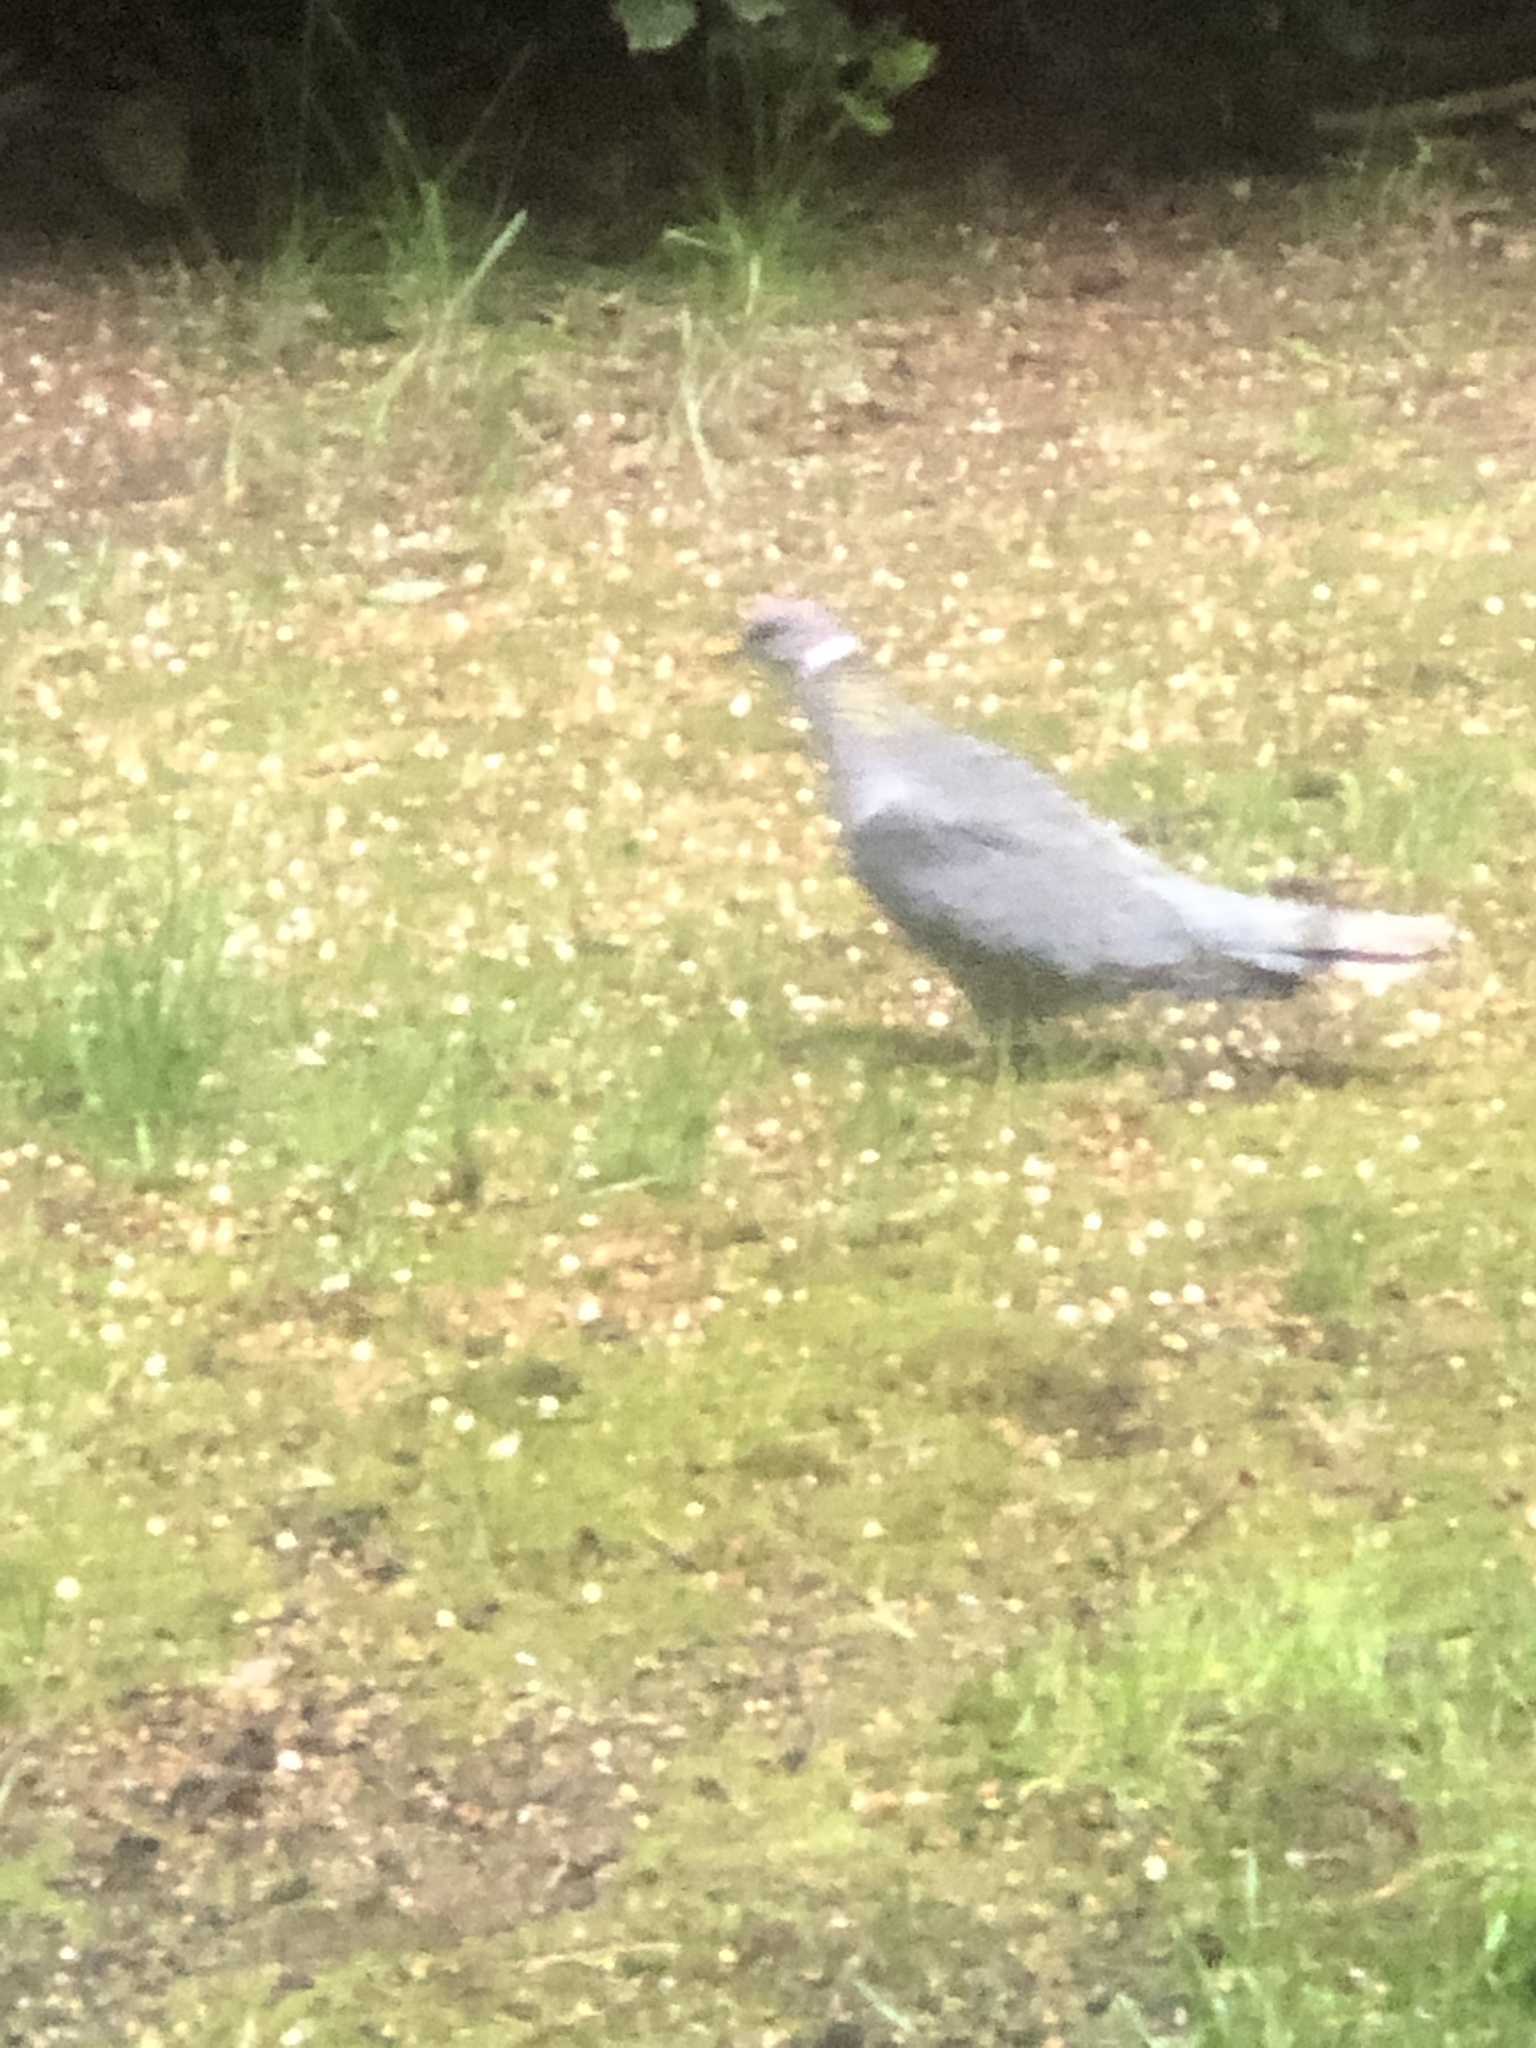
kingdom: Animalia
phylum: Chordata
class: Aves
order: Columbiformes
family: Columbidae
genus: Patagioenas
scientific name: Patagioenas fasciata
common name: Band-tailed pigeon
